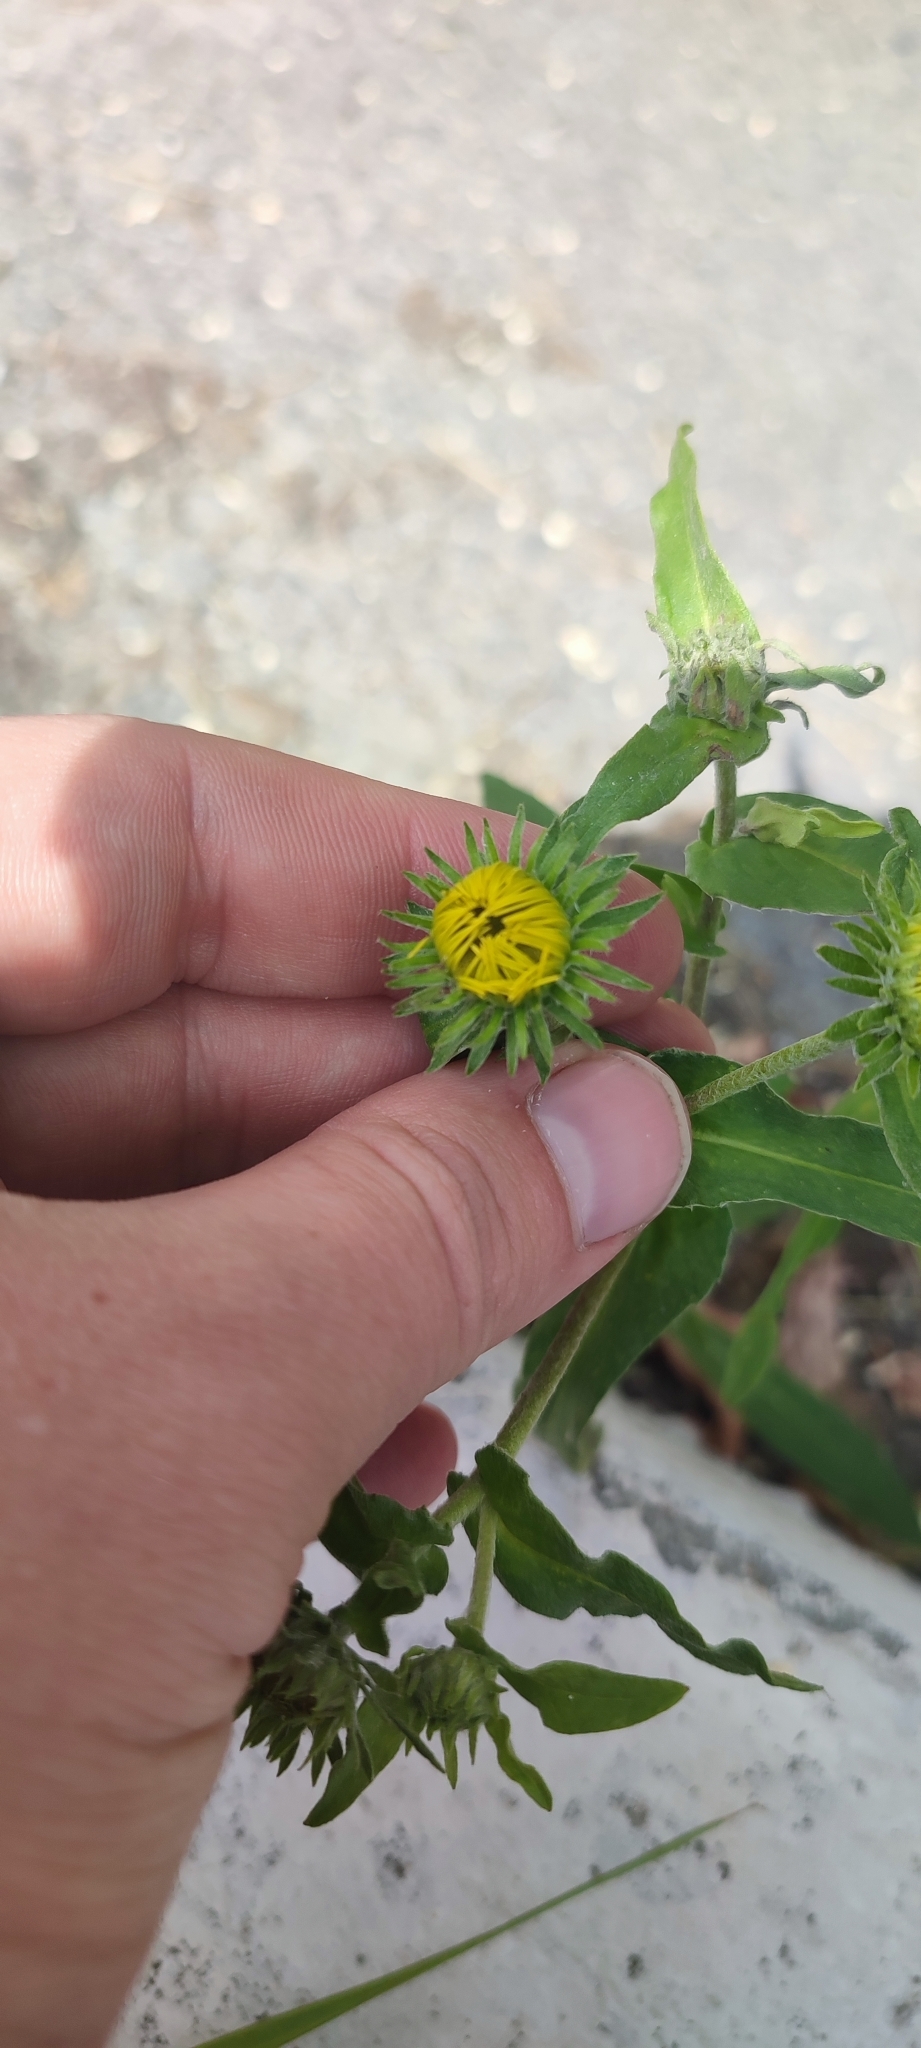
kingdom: Plantae
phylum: Tracheophyta
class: Magnoliopsida
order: Asterales
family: Asteraceae
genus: Pentanema
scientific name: Pentanema britannicum
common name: British elecampane
